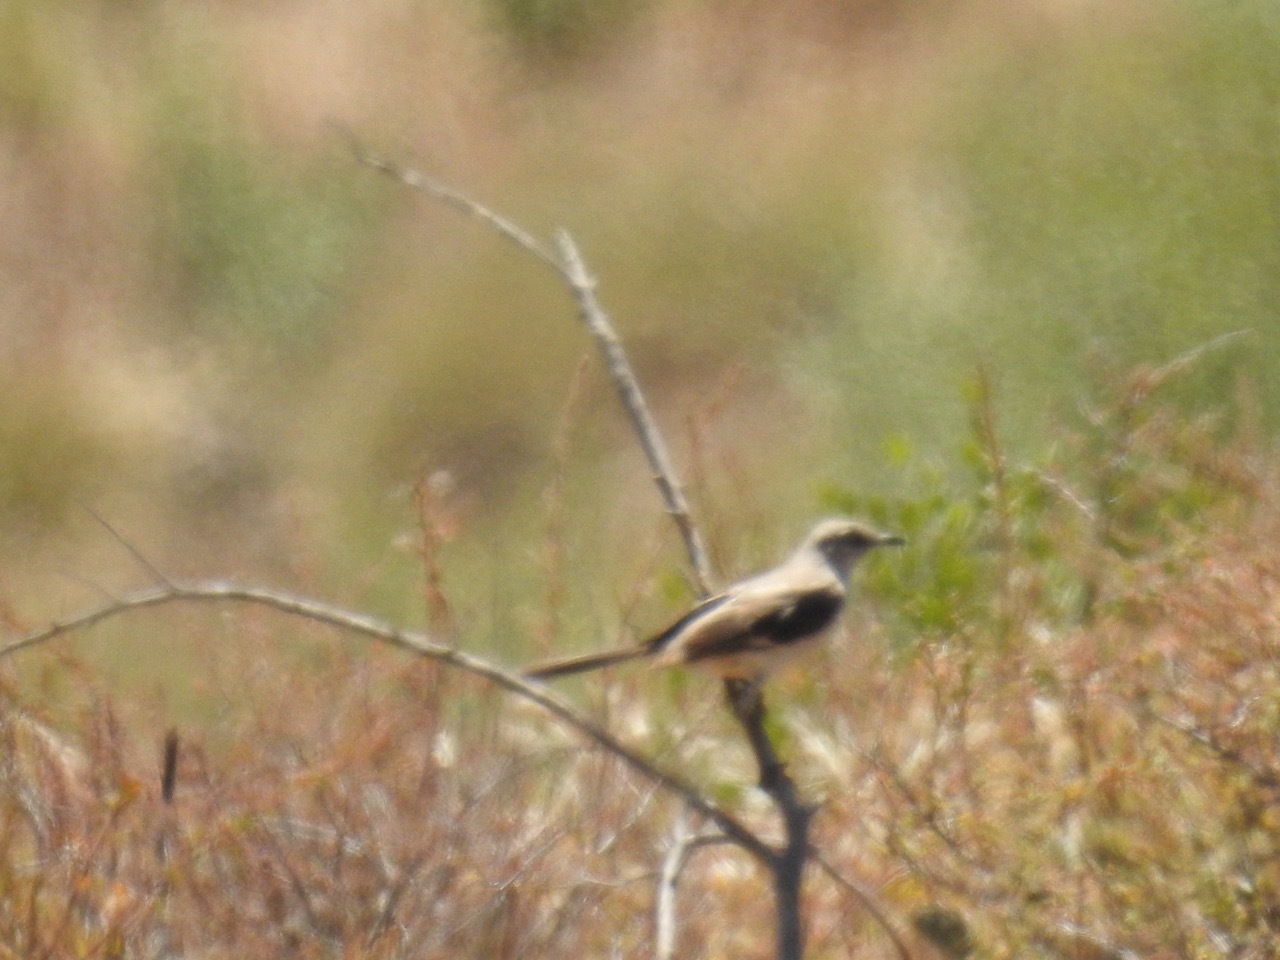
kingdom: Animalia
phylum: Chordata
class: Aves
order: Passeriformes
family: Mimidae
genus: Mimus
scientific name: Mimus polyglottos
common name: Northern mockingbird
